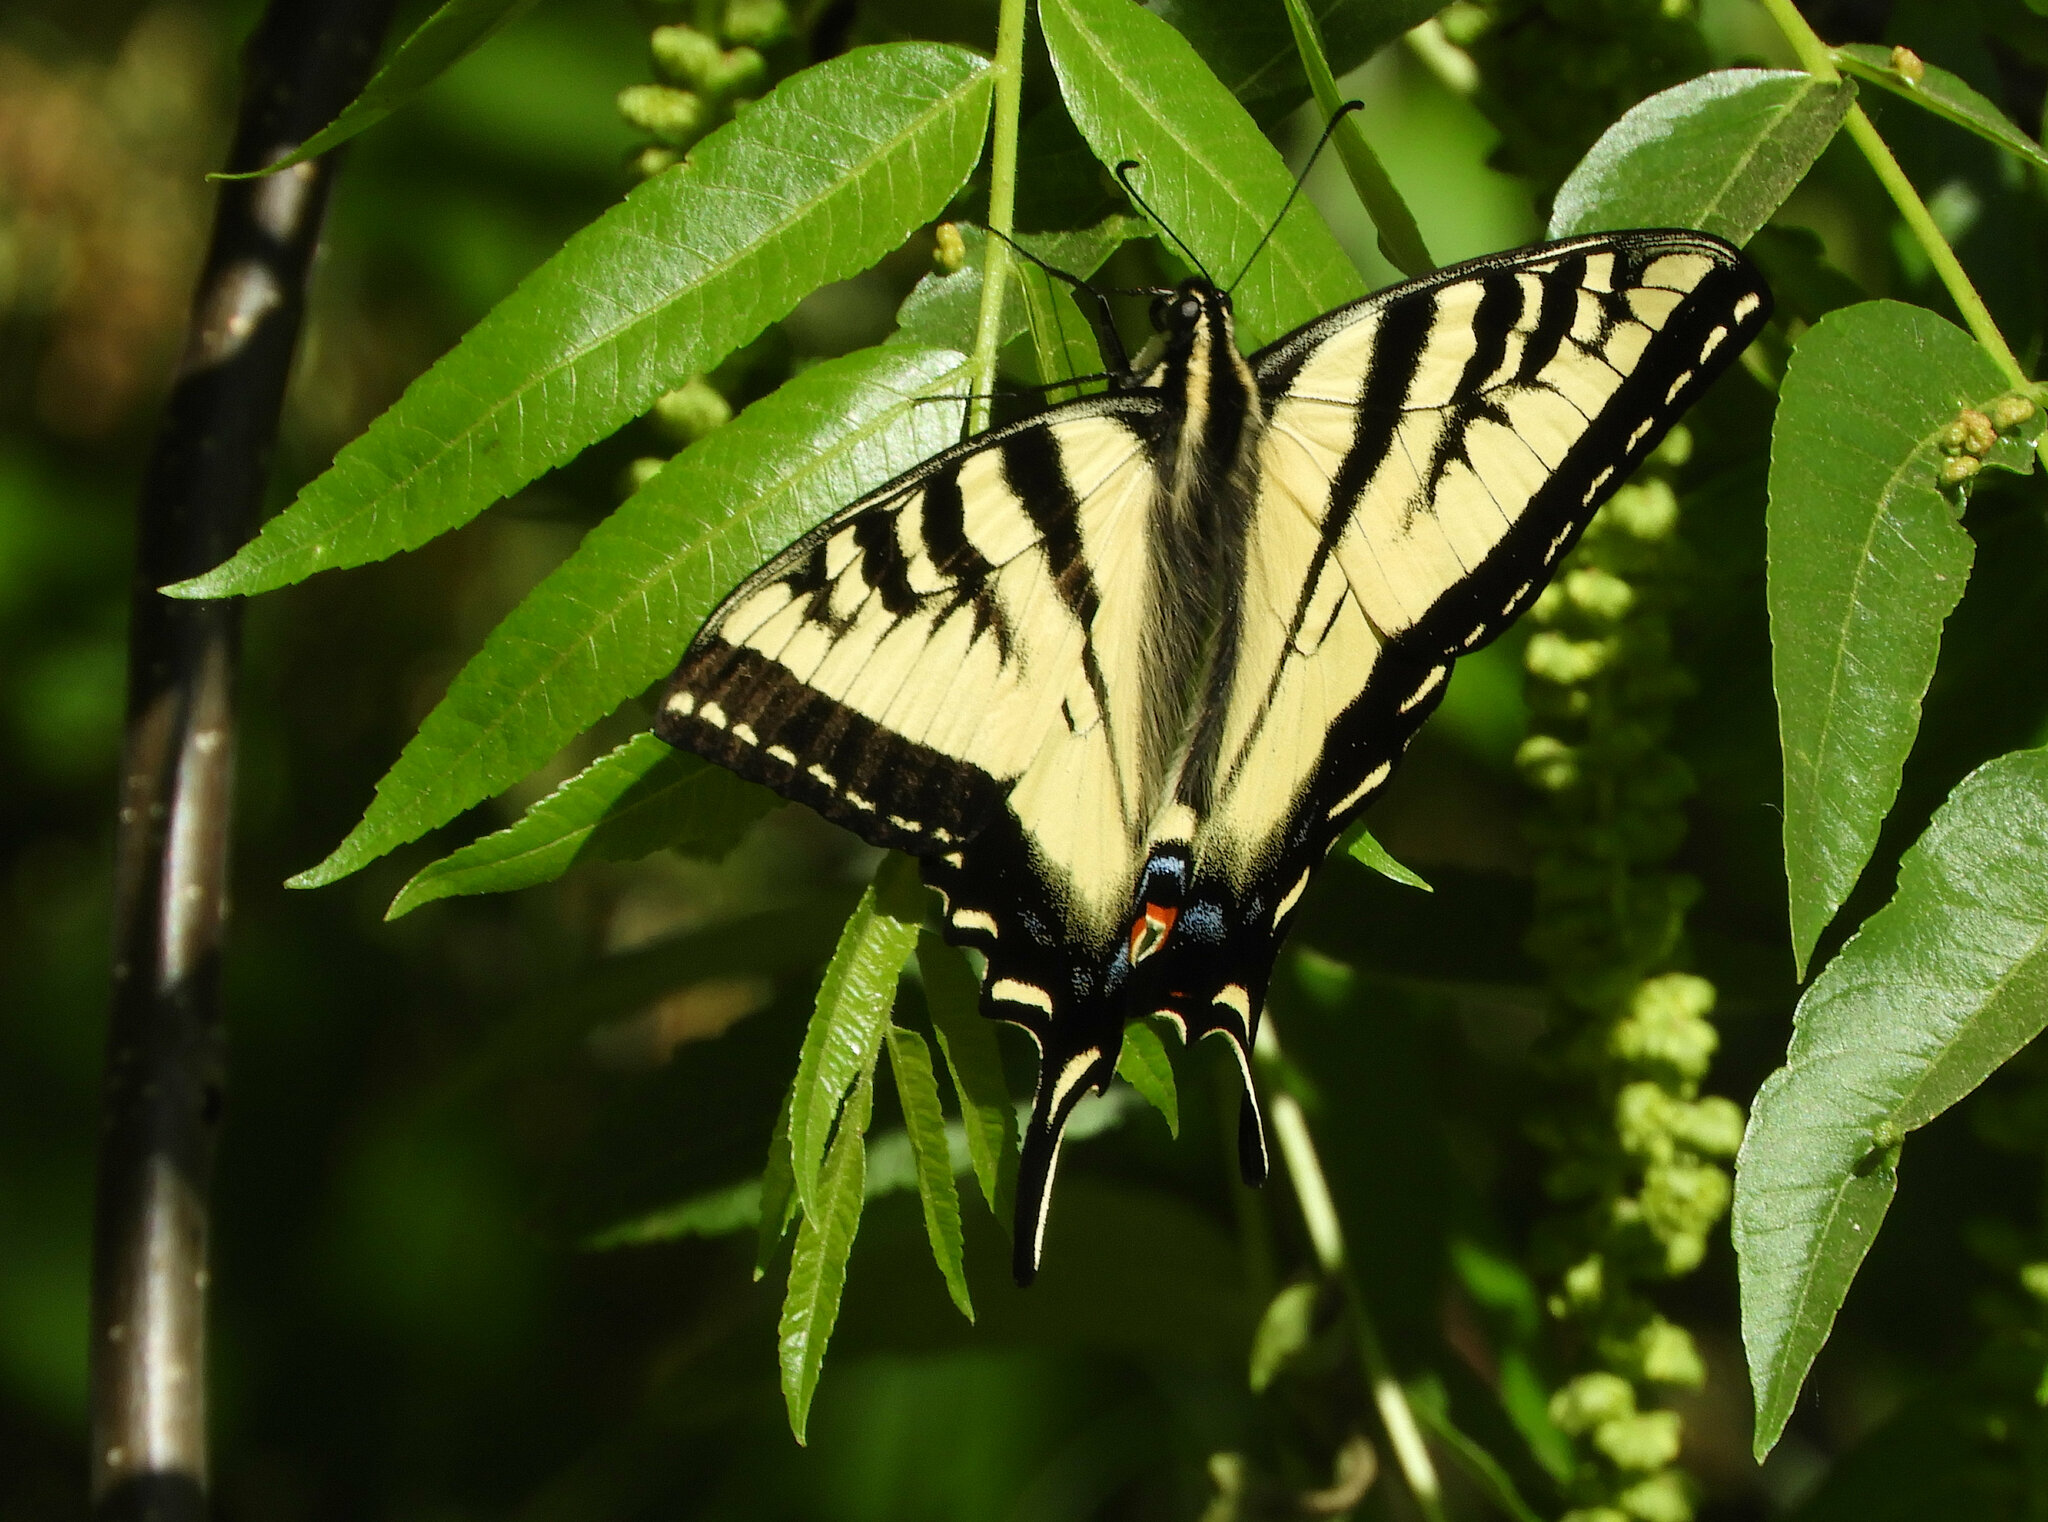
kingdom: Animalia
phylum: Arthropoda
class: Insecta
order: Lepidoptera
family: Papilionidae
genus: Papilio
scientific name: Papilio rutulus
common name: Western tiger swallowtail
